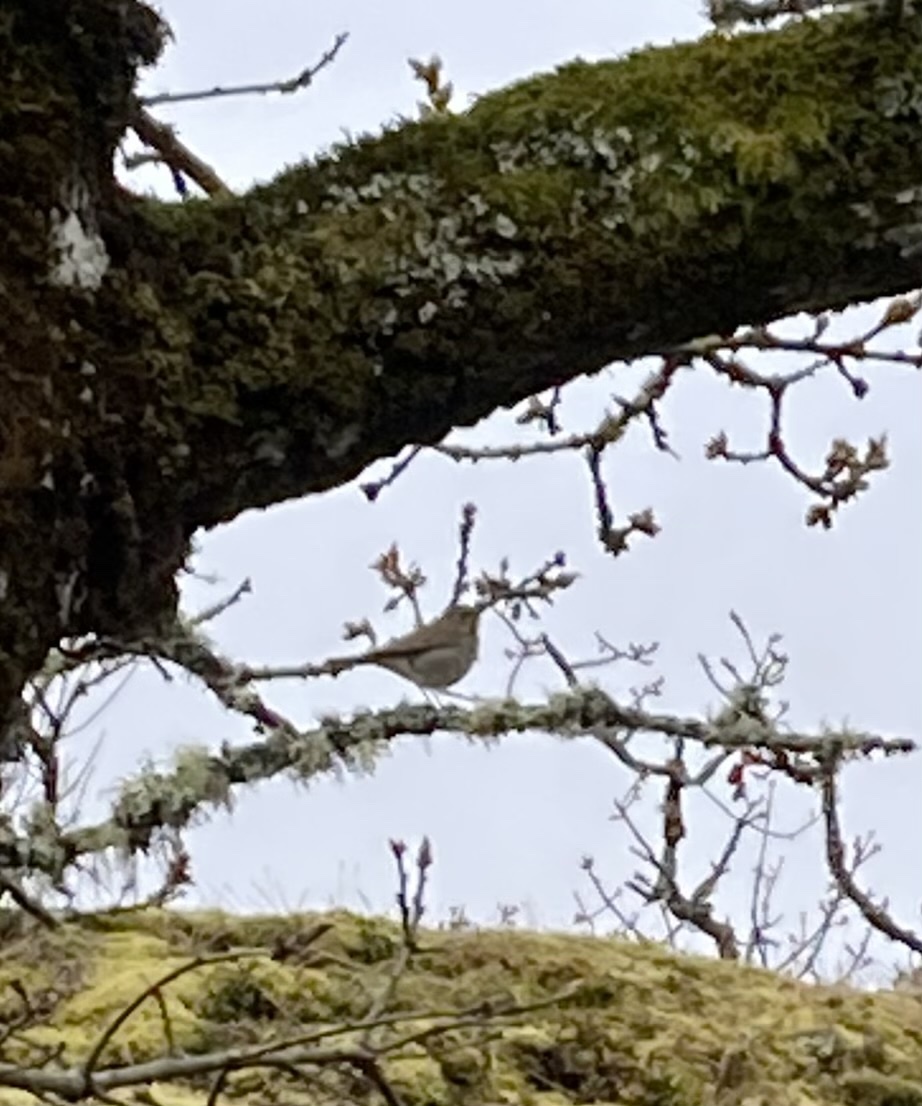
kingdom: Animalia
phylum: Chordata
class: Aves
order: Passeriformes
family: Turdidae
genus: Catharus
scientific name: Catharus guttatus
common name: Hermit thrush
